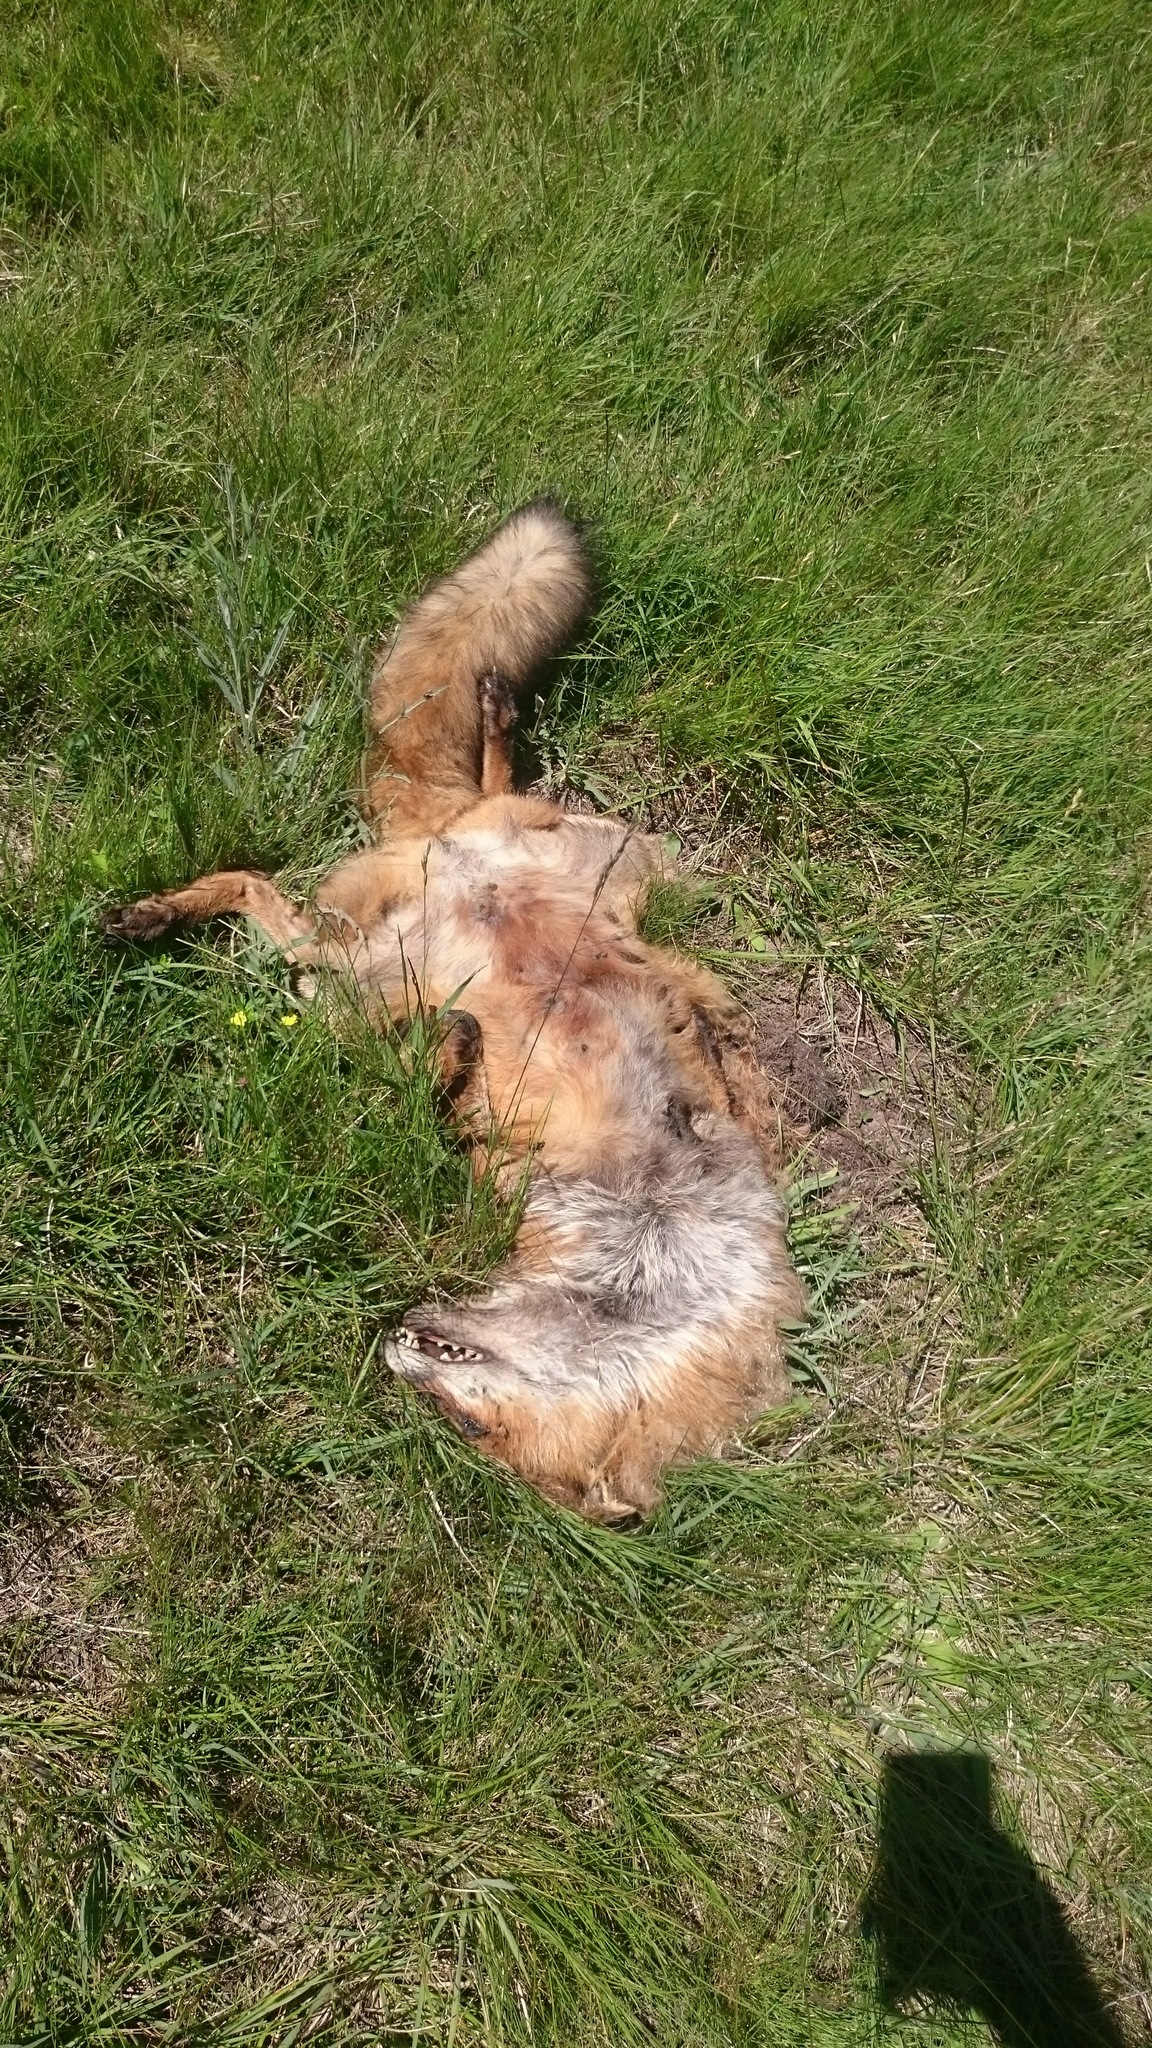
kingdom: Animalia
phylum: Chordata
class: Mammalia
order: Carnivora
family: Canidae
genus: Vulpes
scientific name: Vulpes vulpes
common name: Red fox
